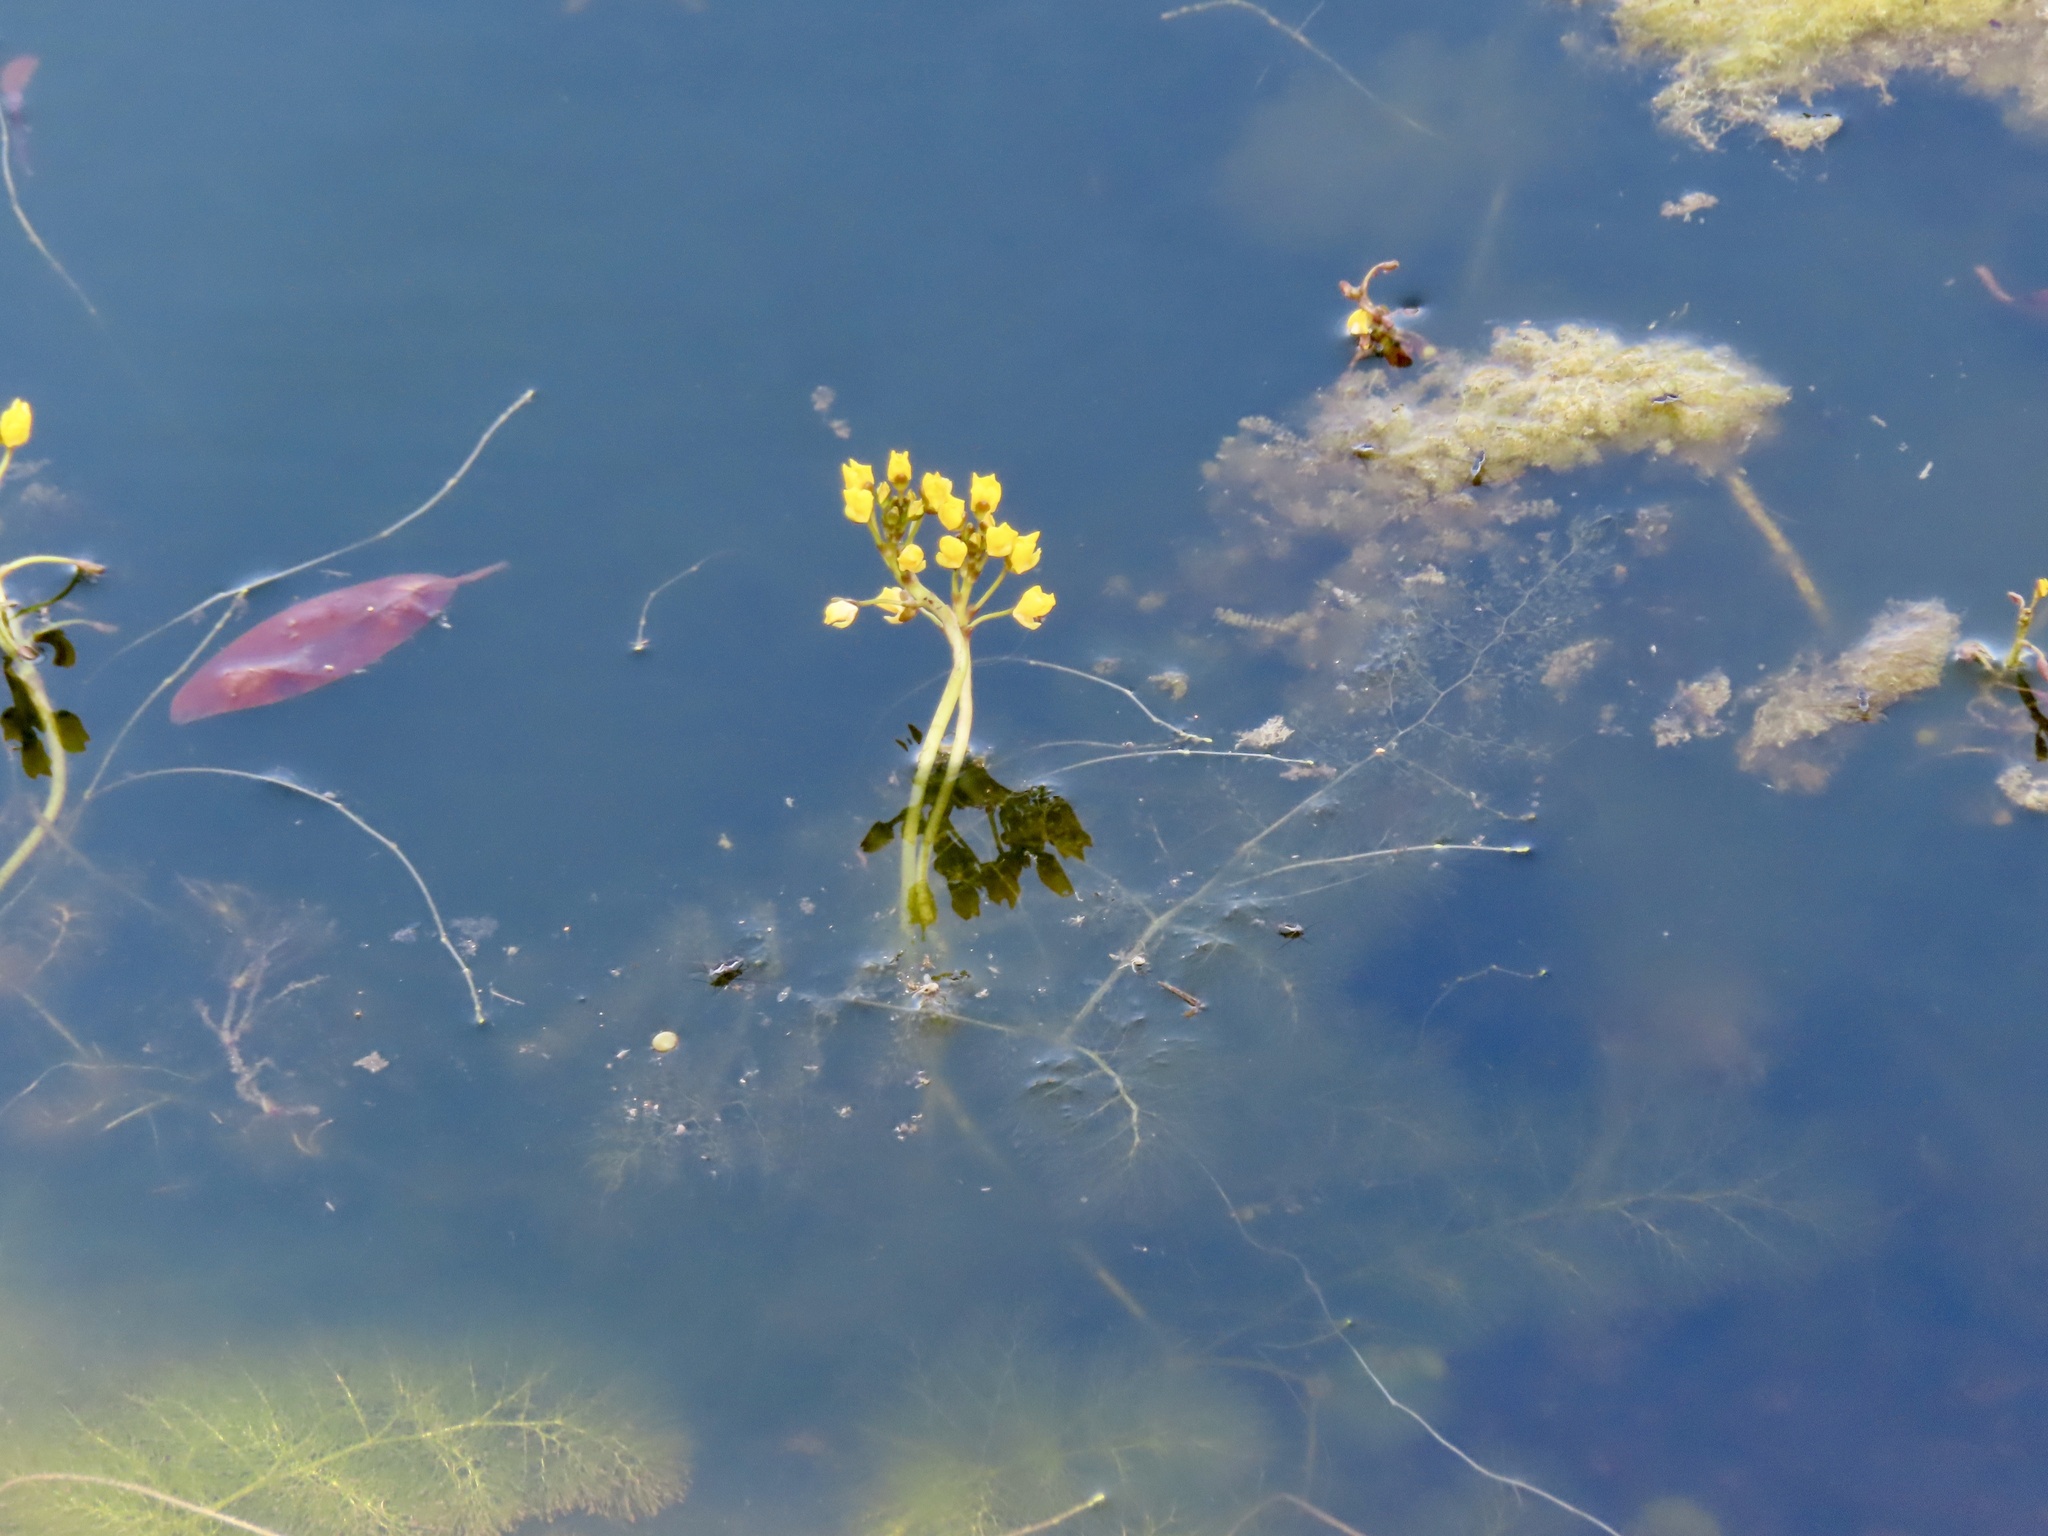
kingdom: Plantae
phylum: Tracheophyta
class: Magnoliopsida
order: Lamiales
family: Lentibulariaceae
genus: Utricularia
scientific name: Utricularia foliosa
